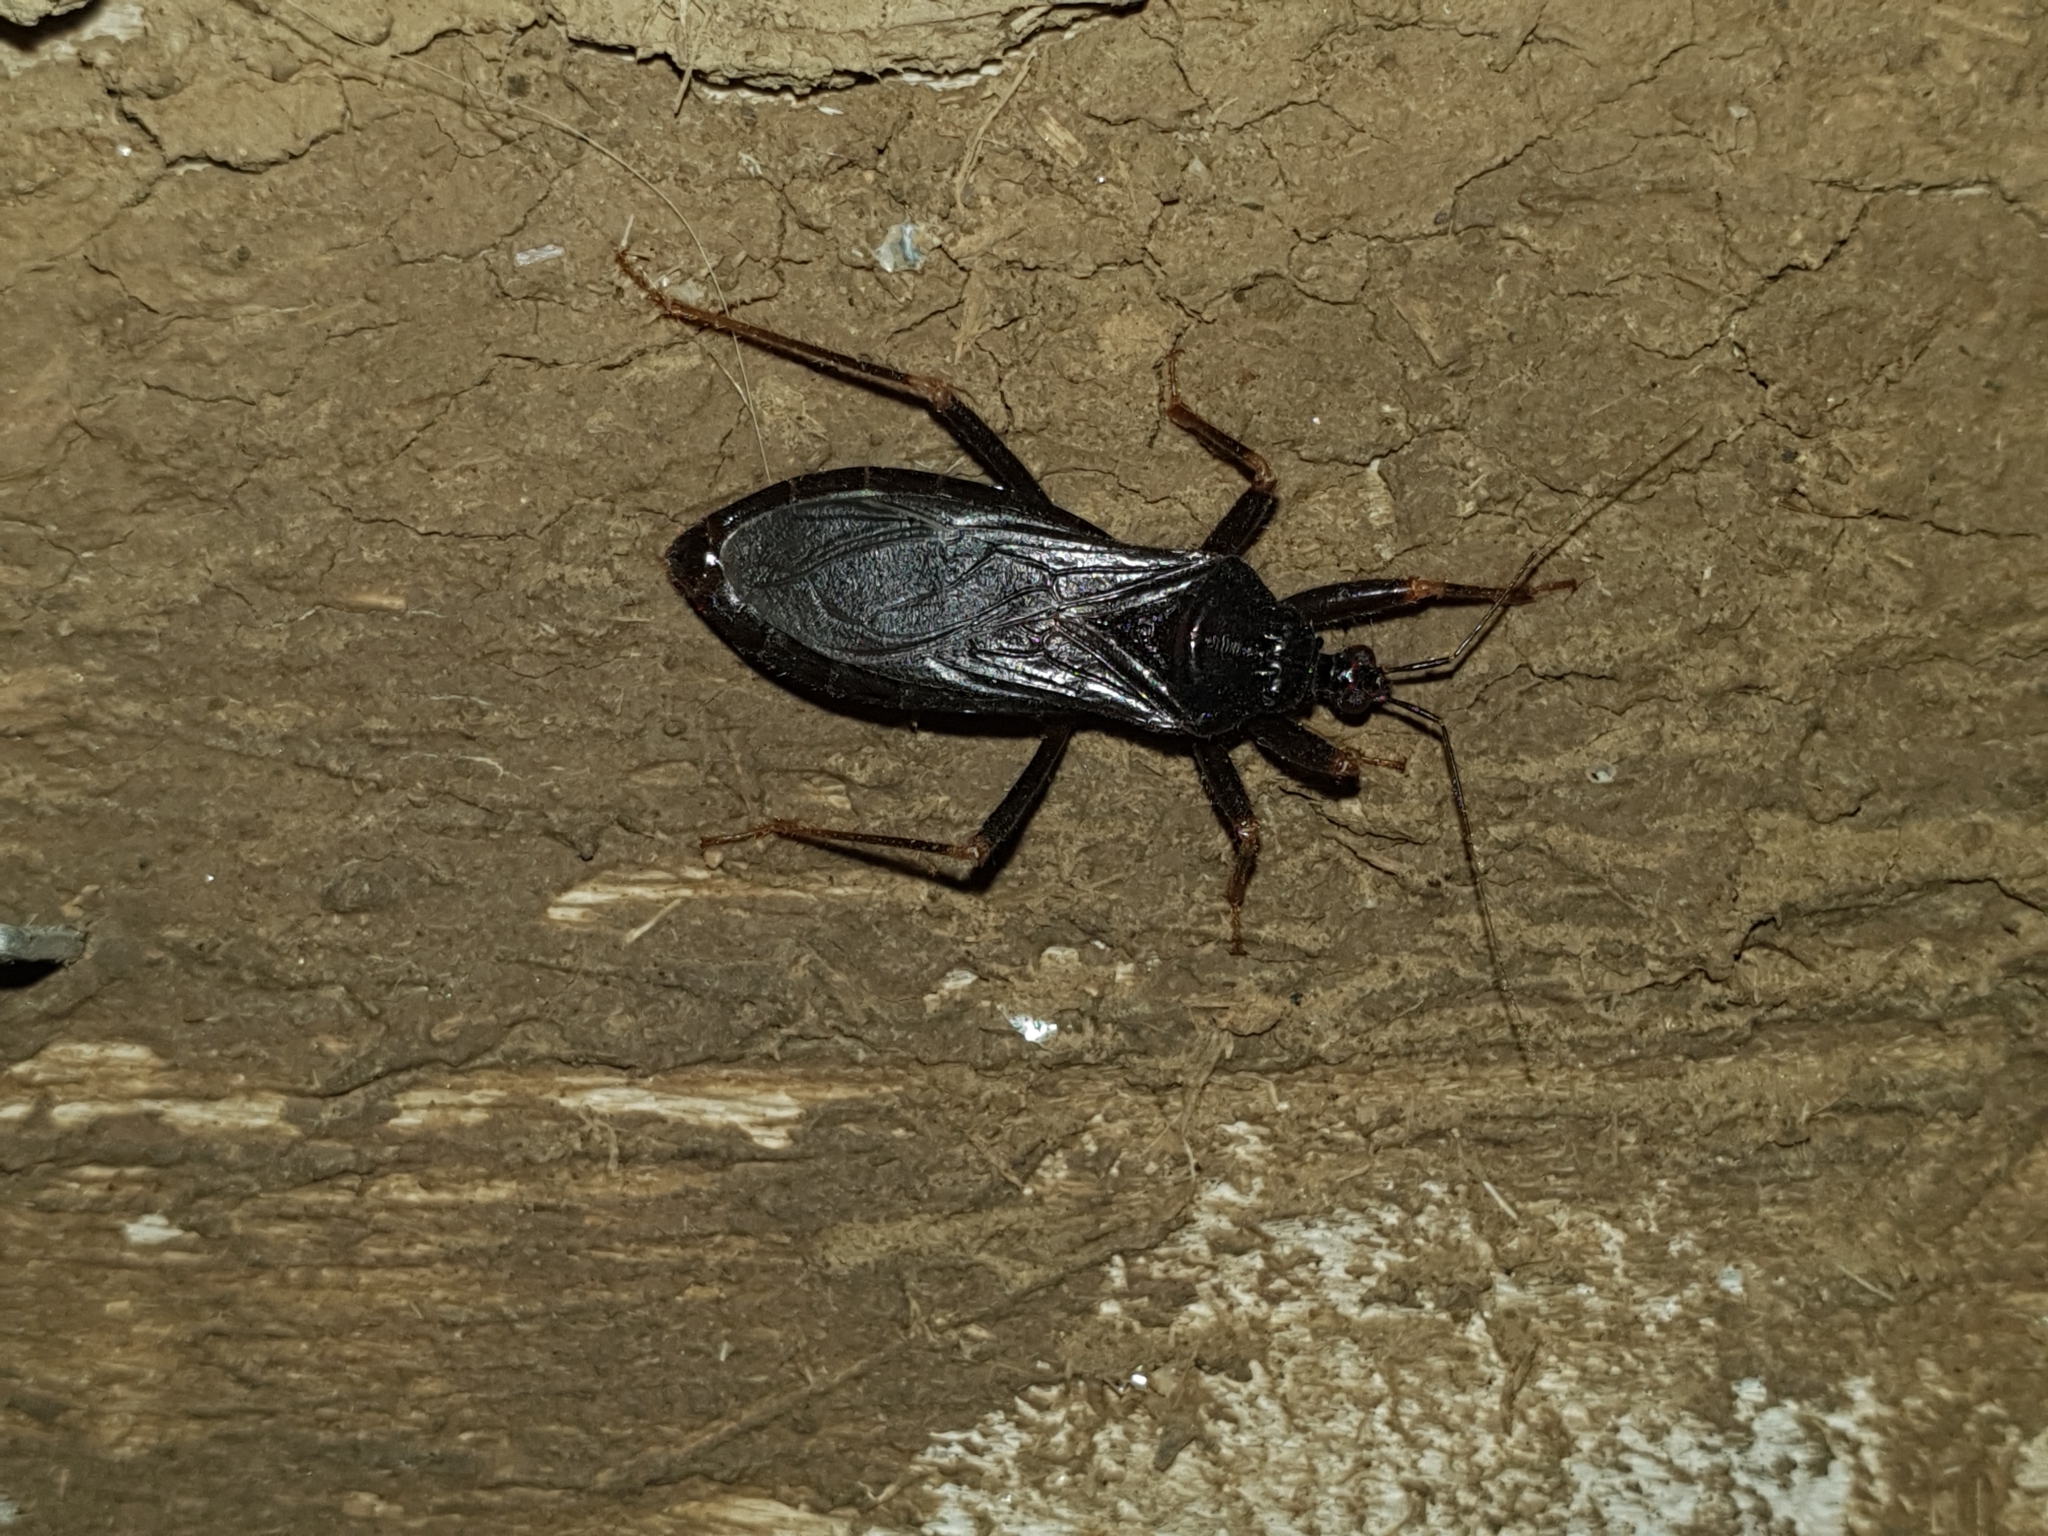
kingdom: Animalia
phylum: Arthropoda
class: Insecta
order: Hemiptera
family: Reduviidae
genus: Reduvius
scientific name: Reduvius personatus
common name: Masked hunter
